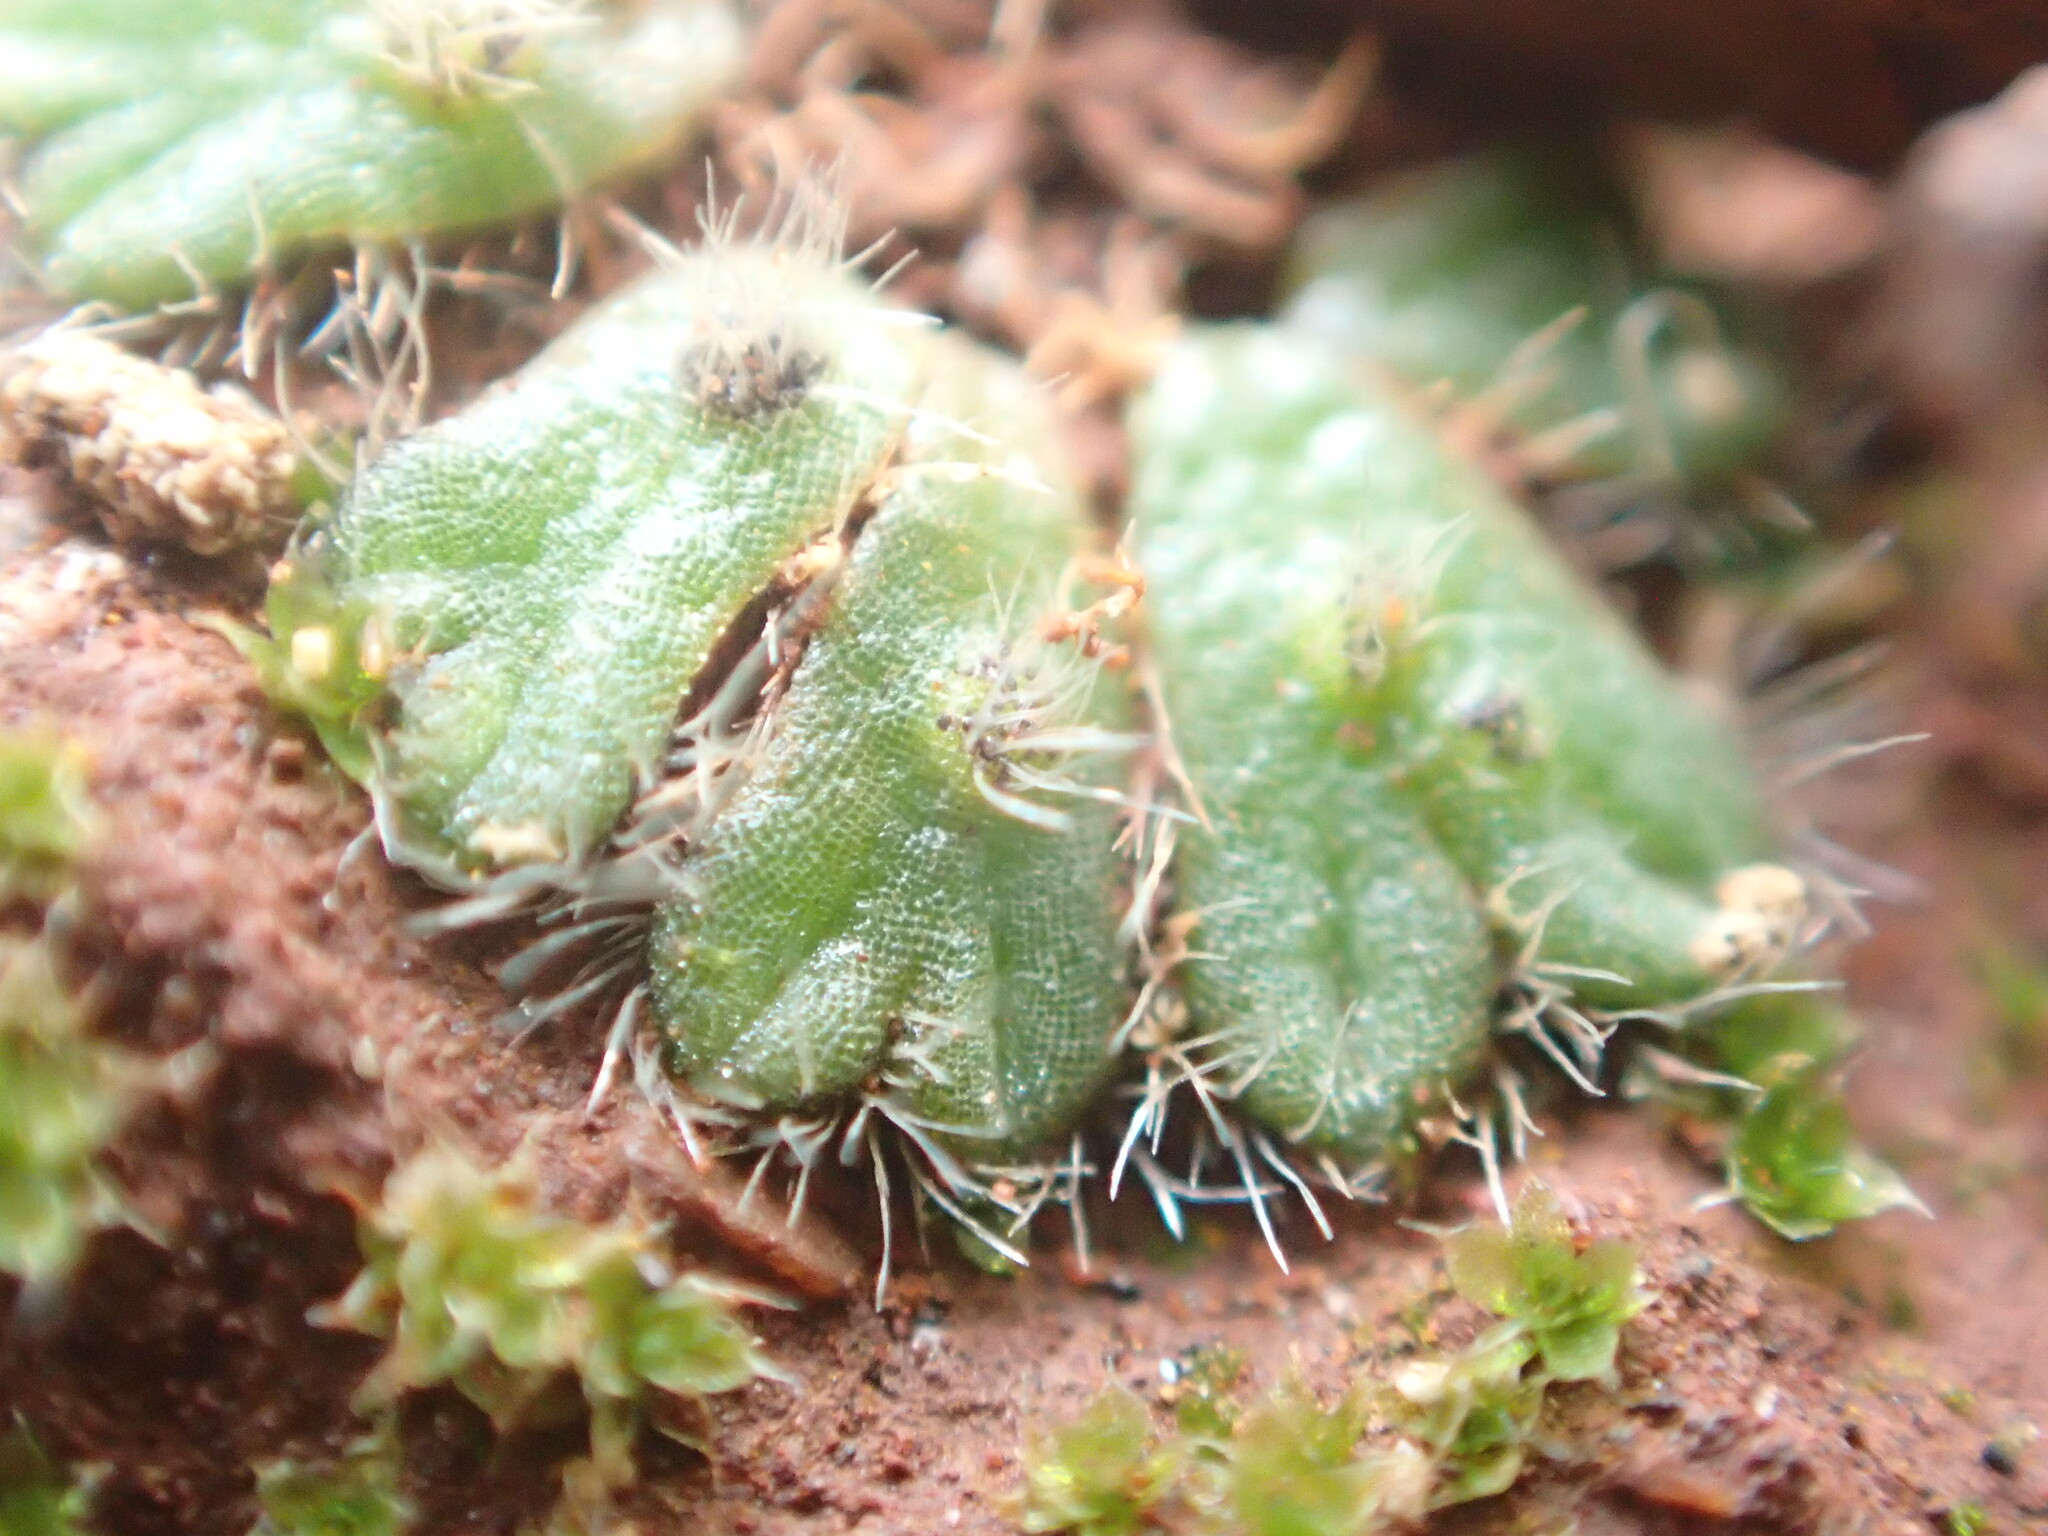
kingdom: Plantae
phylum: Marchantiophyta
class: Marchantiopsida
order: Marchantiales
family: Ricciaceae
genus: Riccia
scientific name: Riccia crinita
